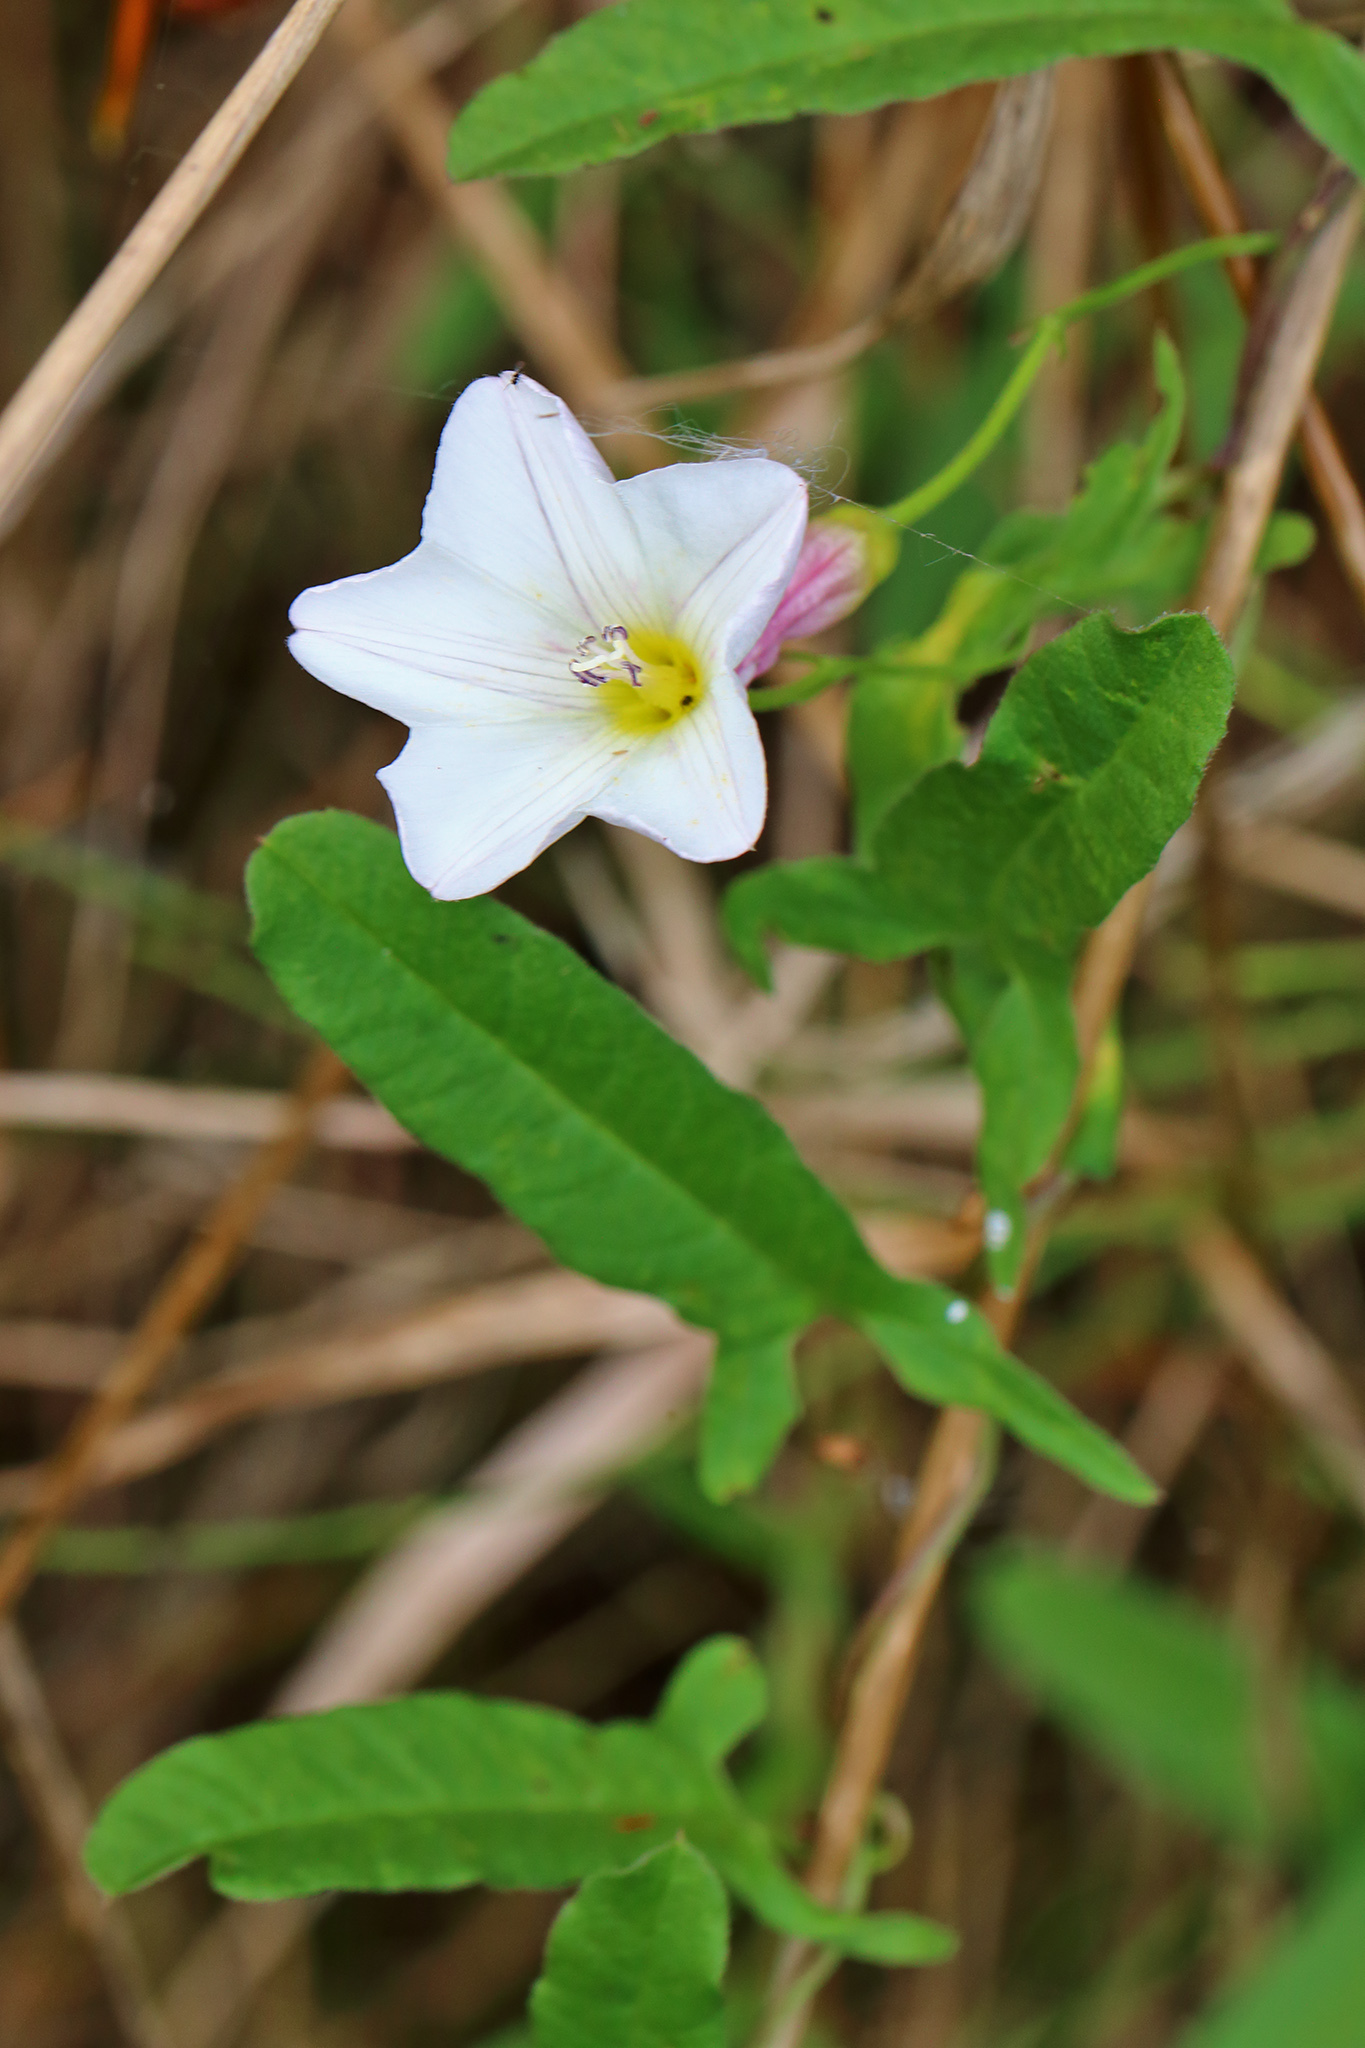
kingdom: Plantae
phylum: Tracheophyta
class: Magnoliopsida
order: Solanales
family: Convolvulaceae
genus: Convolvulus
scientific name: Convolvulus arvensis
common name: Field bindweed
